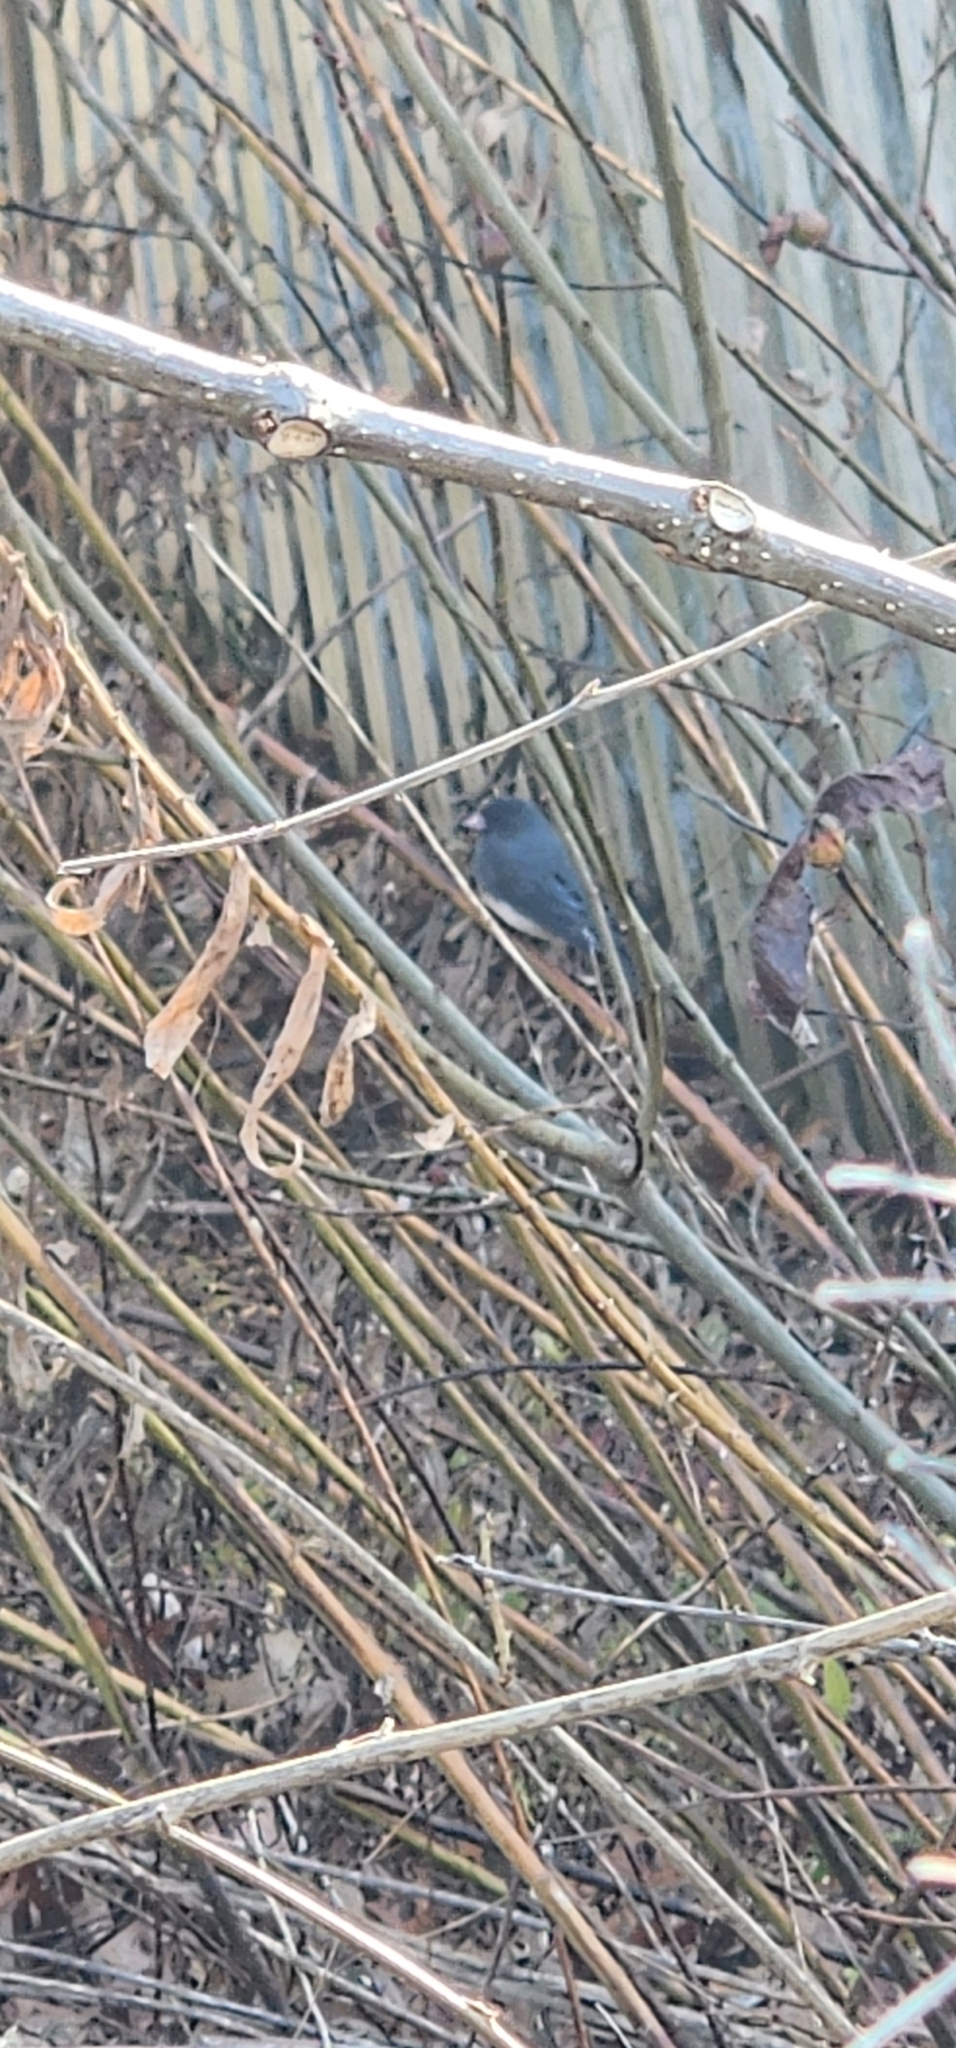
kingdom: Animalia
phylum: Chordata
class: Aves
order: Passeriformes
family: Passerellidae
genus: Junco
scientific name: Junco hyemalis
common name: Dark-eyed junco
